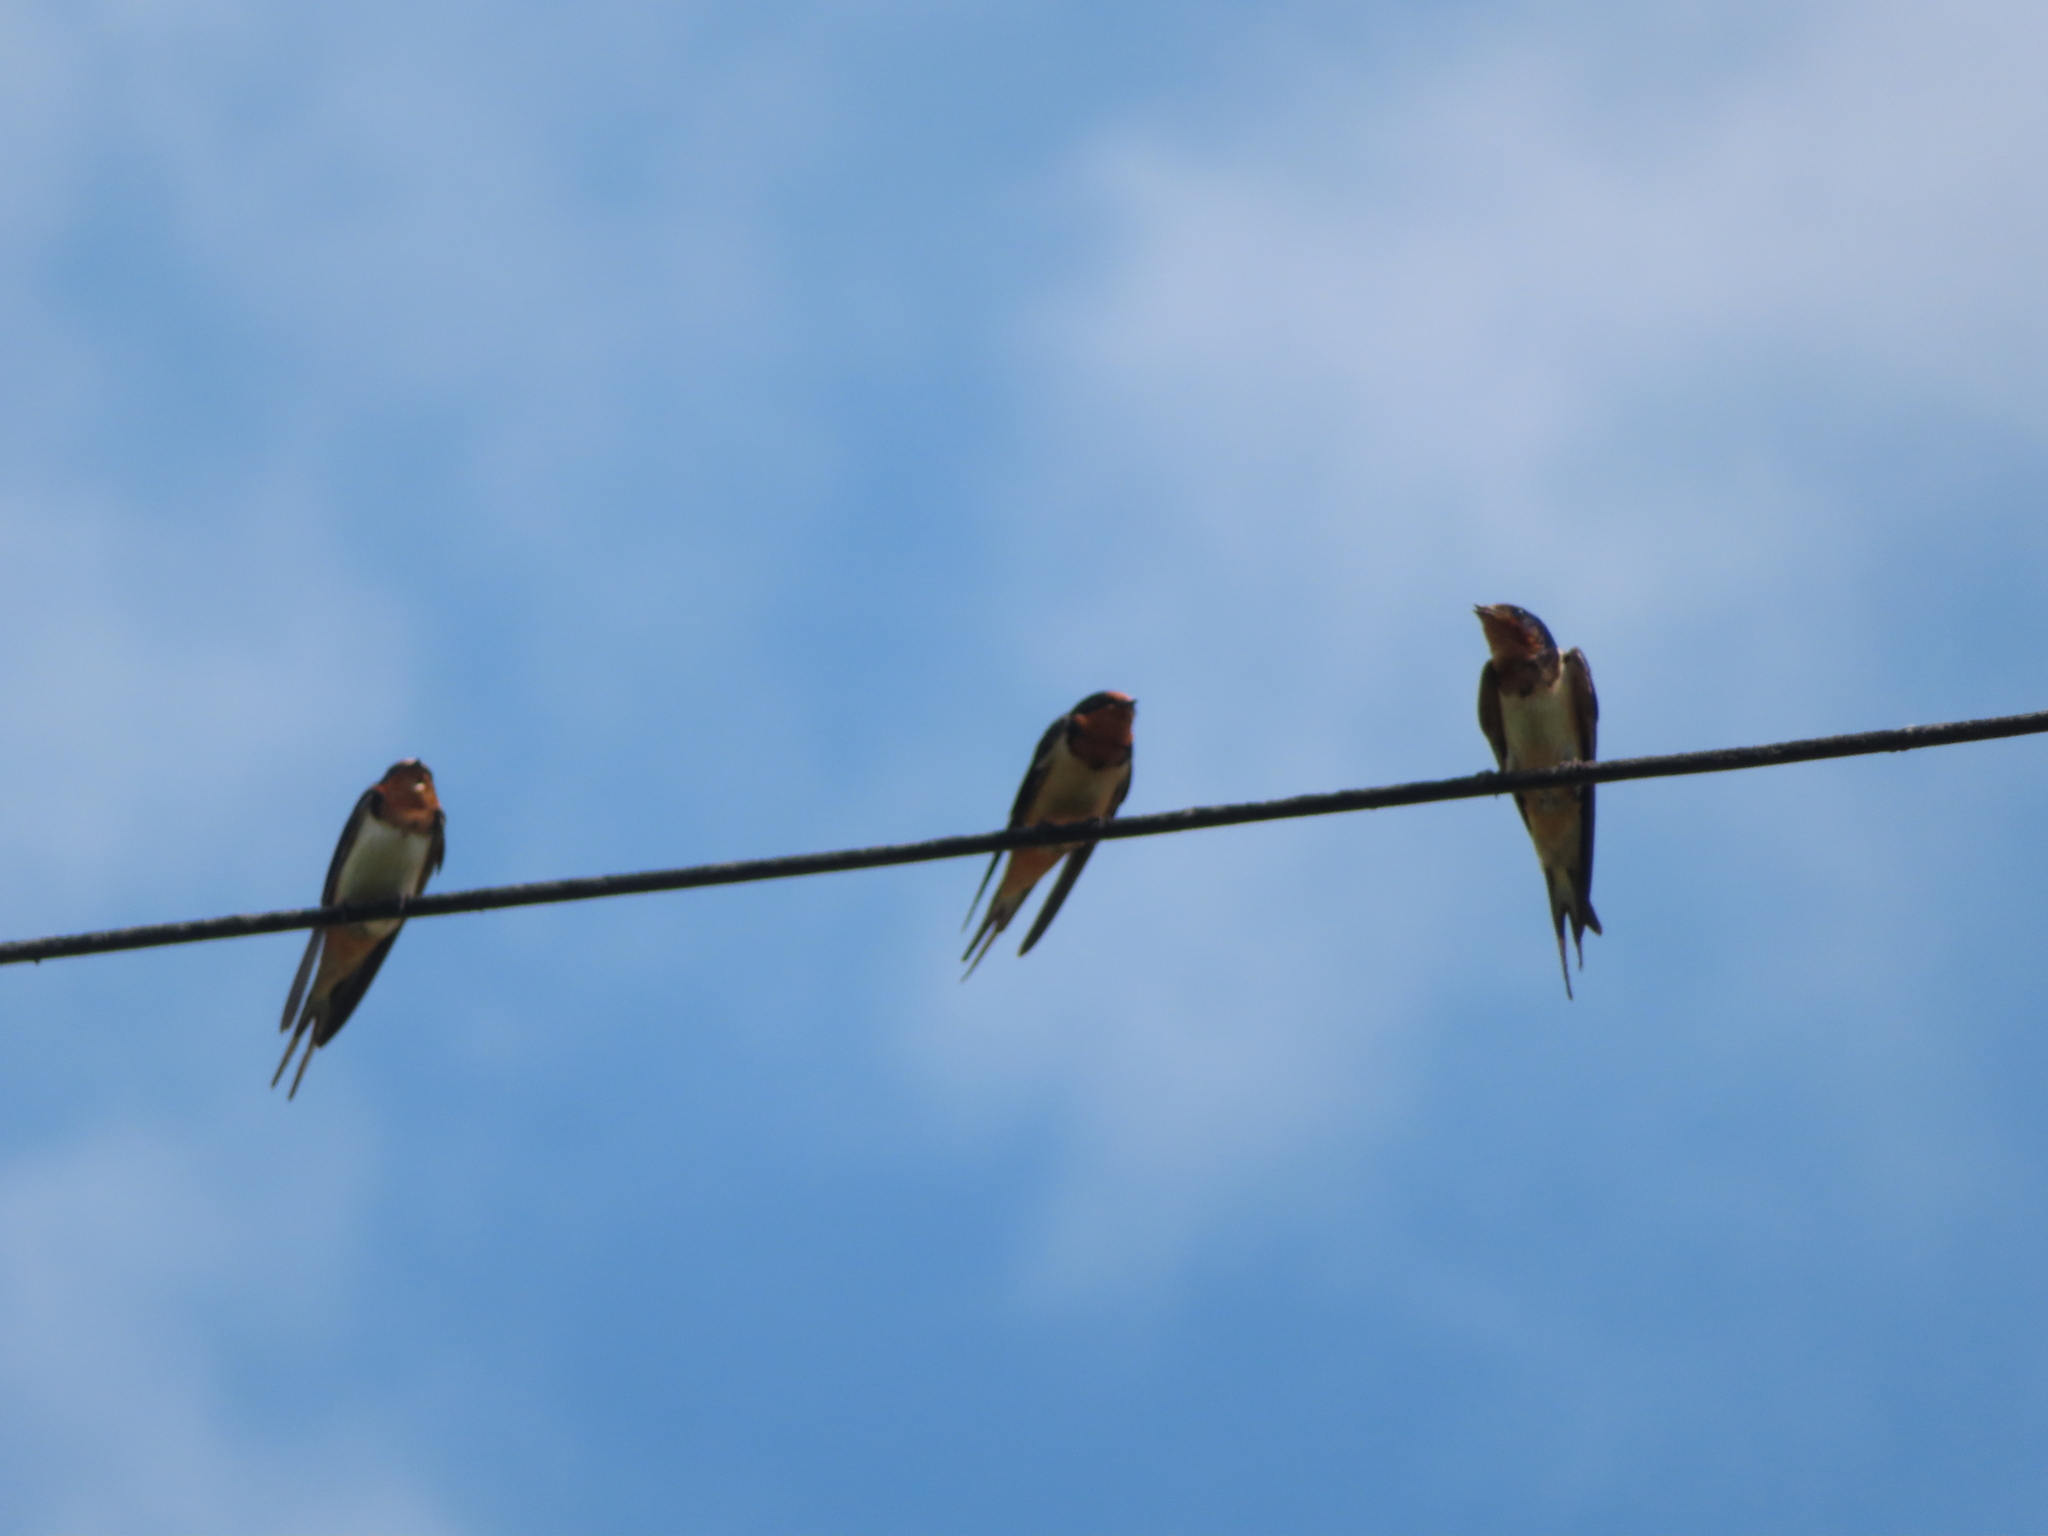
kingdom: Animalia
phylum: Chordata
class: Aves
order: Passeriformes
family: Hirundinidae
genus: Hirundo
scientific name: Hirundo rustica
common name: Barn swallow
